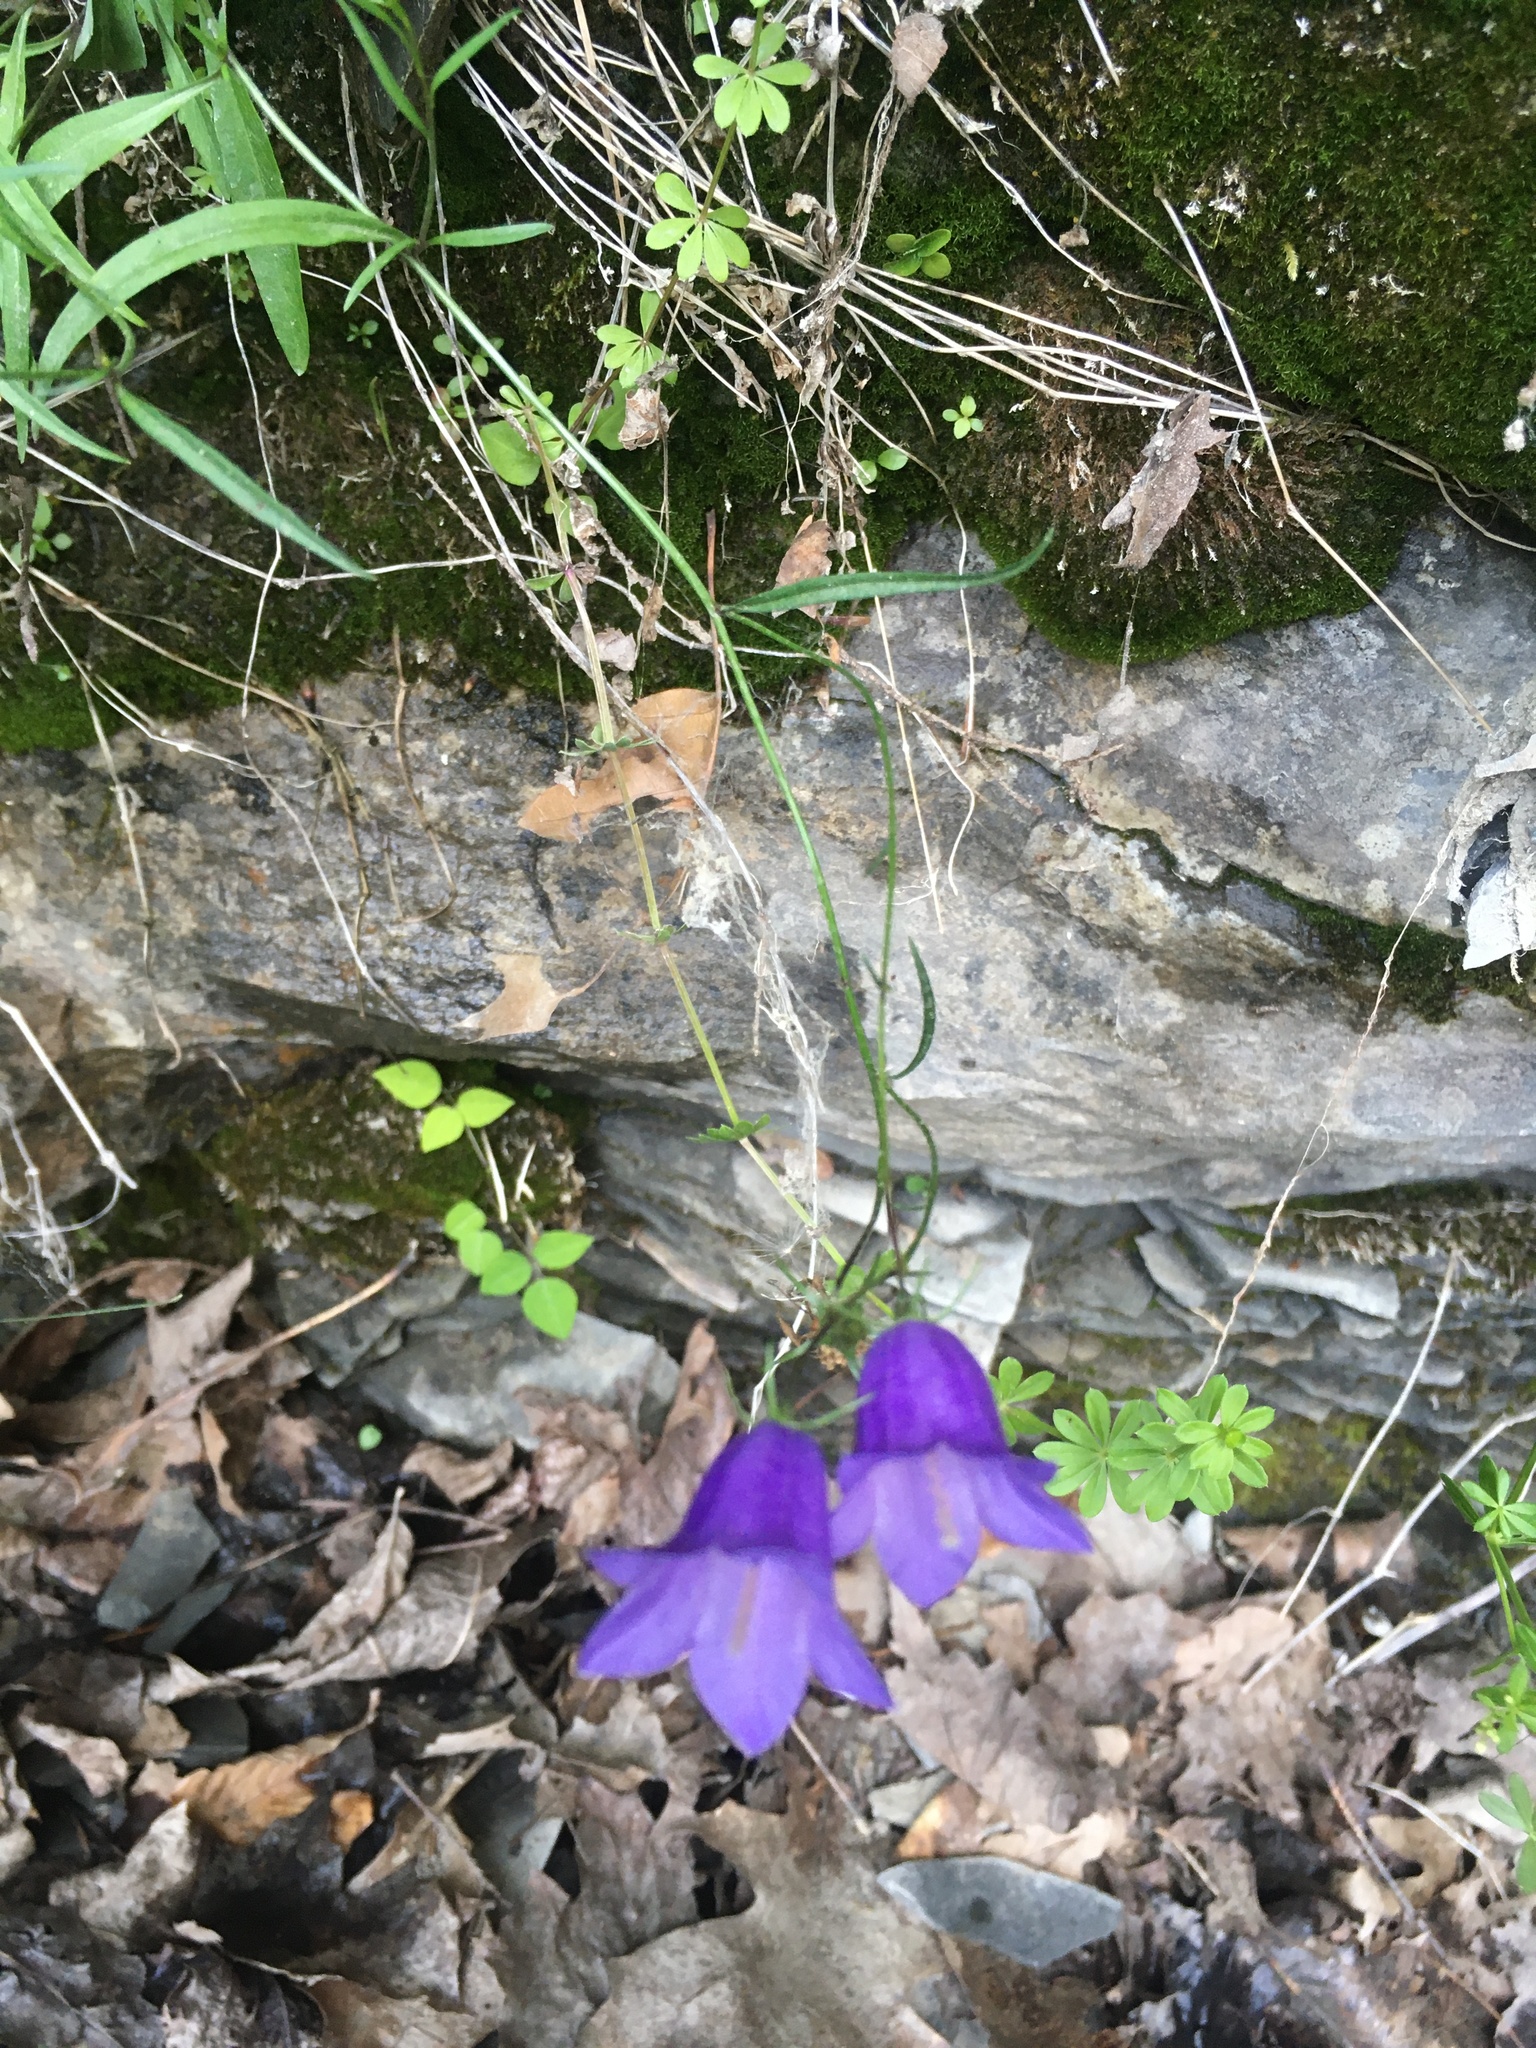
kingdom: Plantae
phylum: Tracheophyta
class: Magnoliopsida
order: Asterales
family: Campanulaceae
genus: Campanula
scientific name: Campanula intercedens
